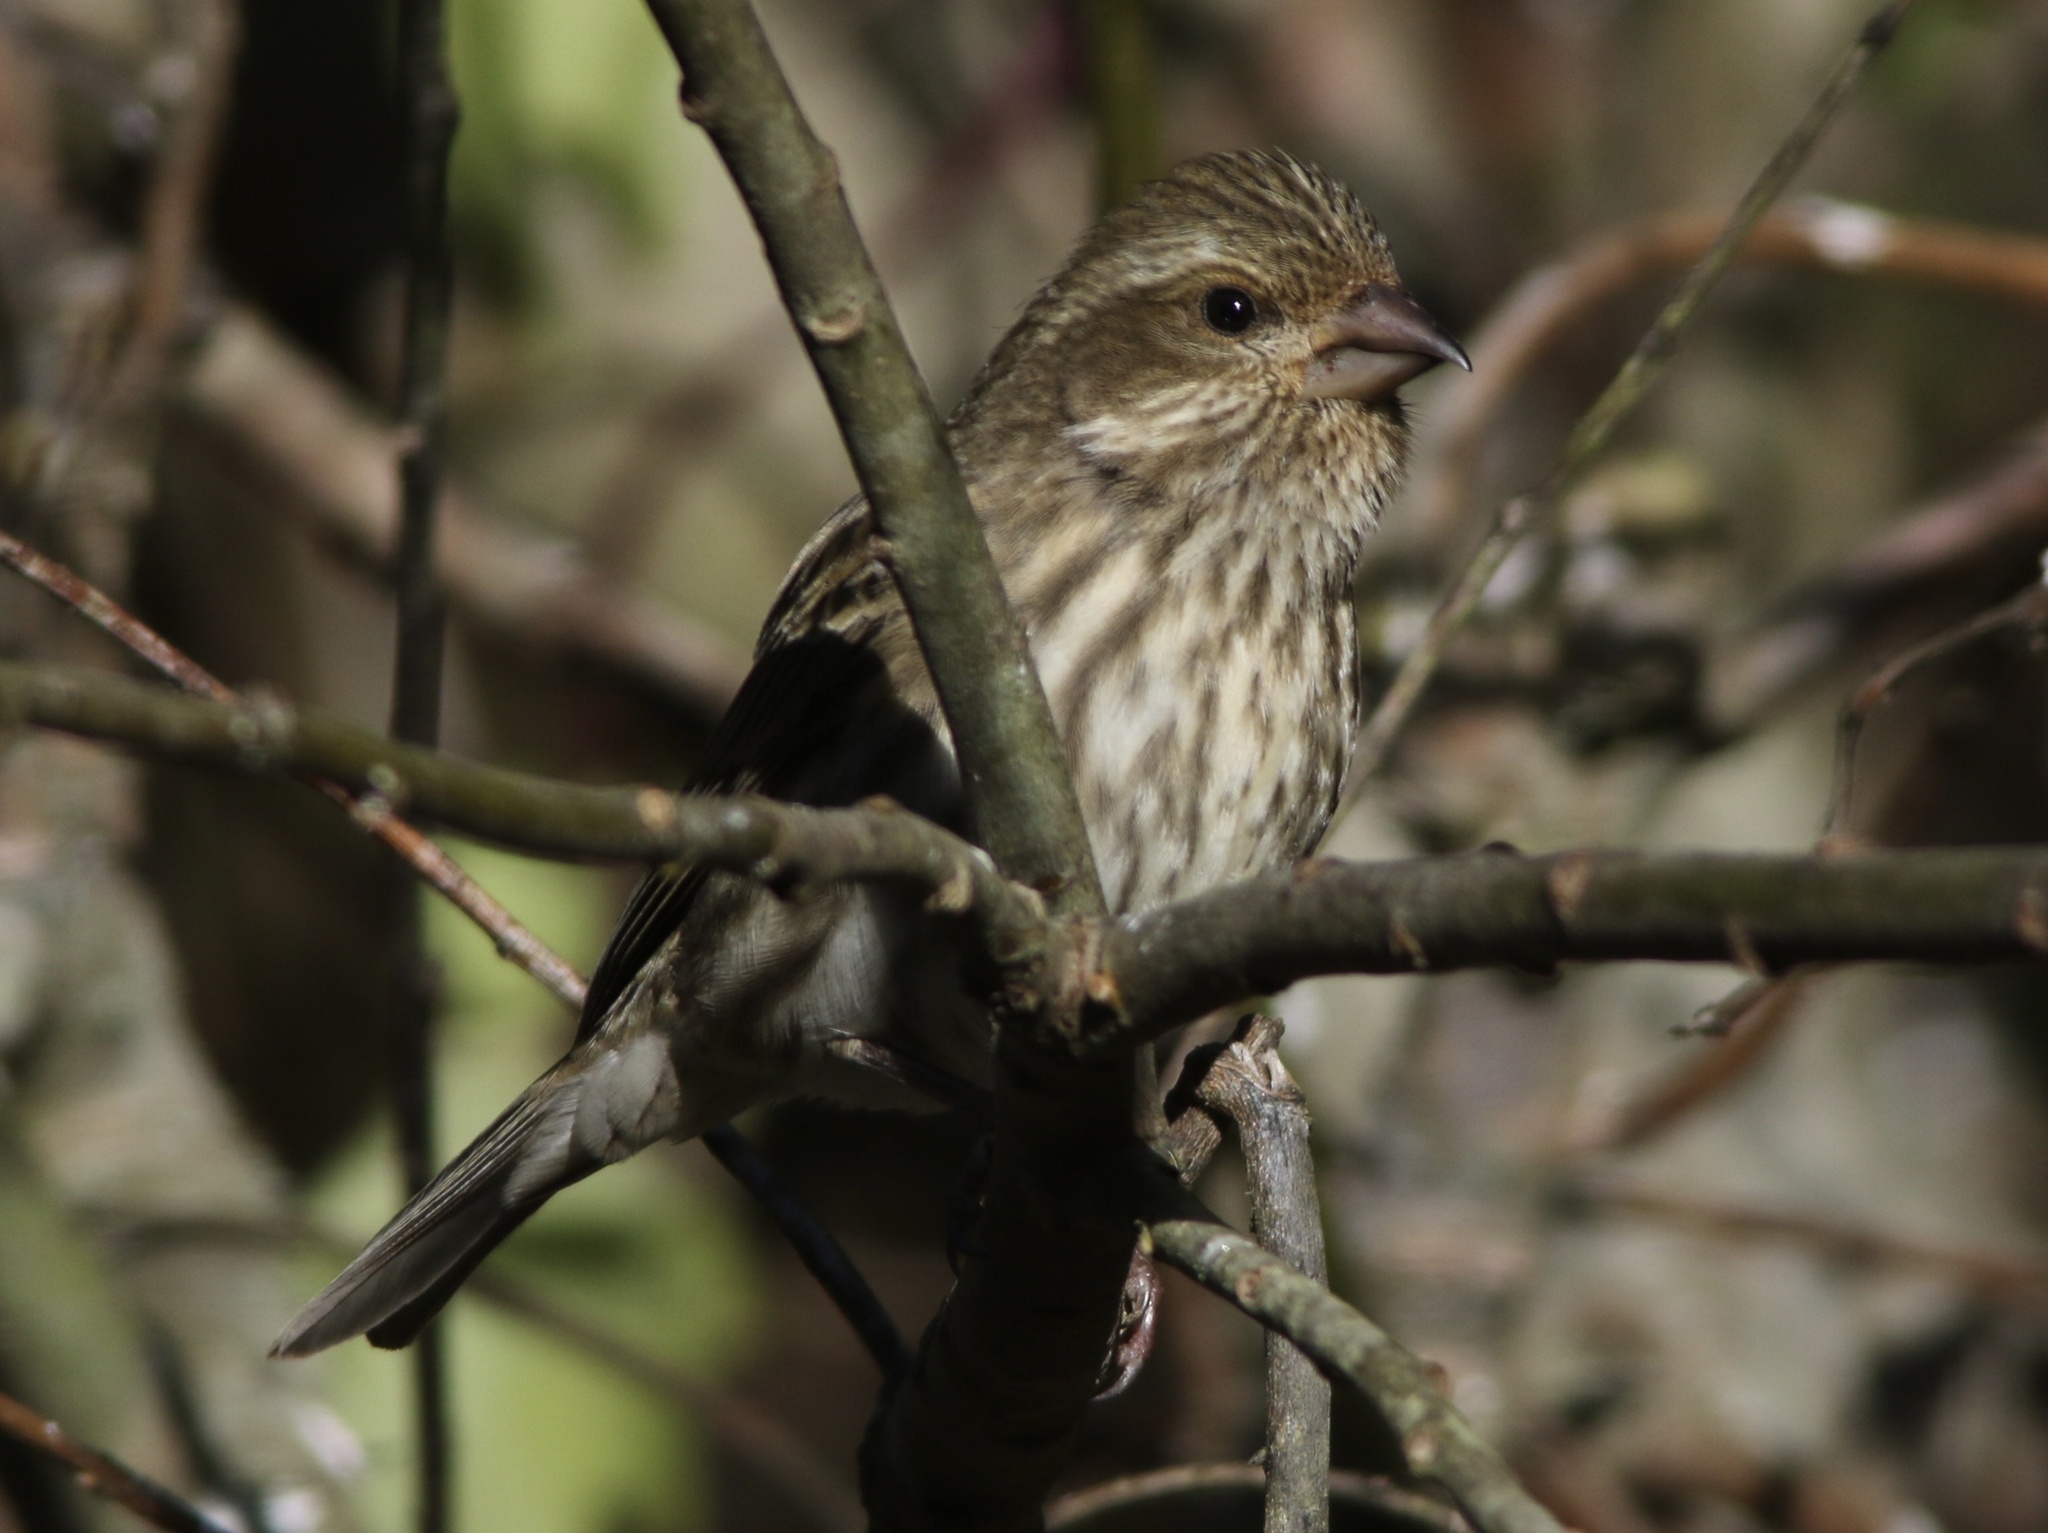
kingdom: Animalia
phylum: Chordata
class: Aves
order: Passeriformes
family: Fringillidae
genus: Haemorhous
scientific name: Haemorhous purpureus
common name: Purple finch
